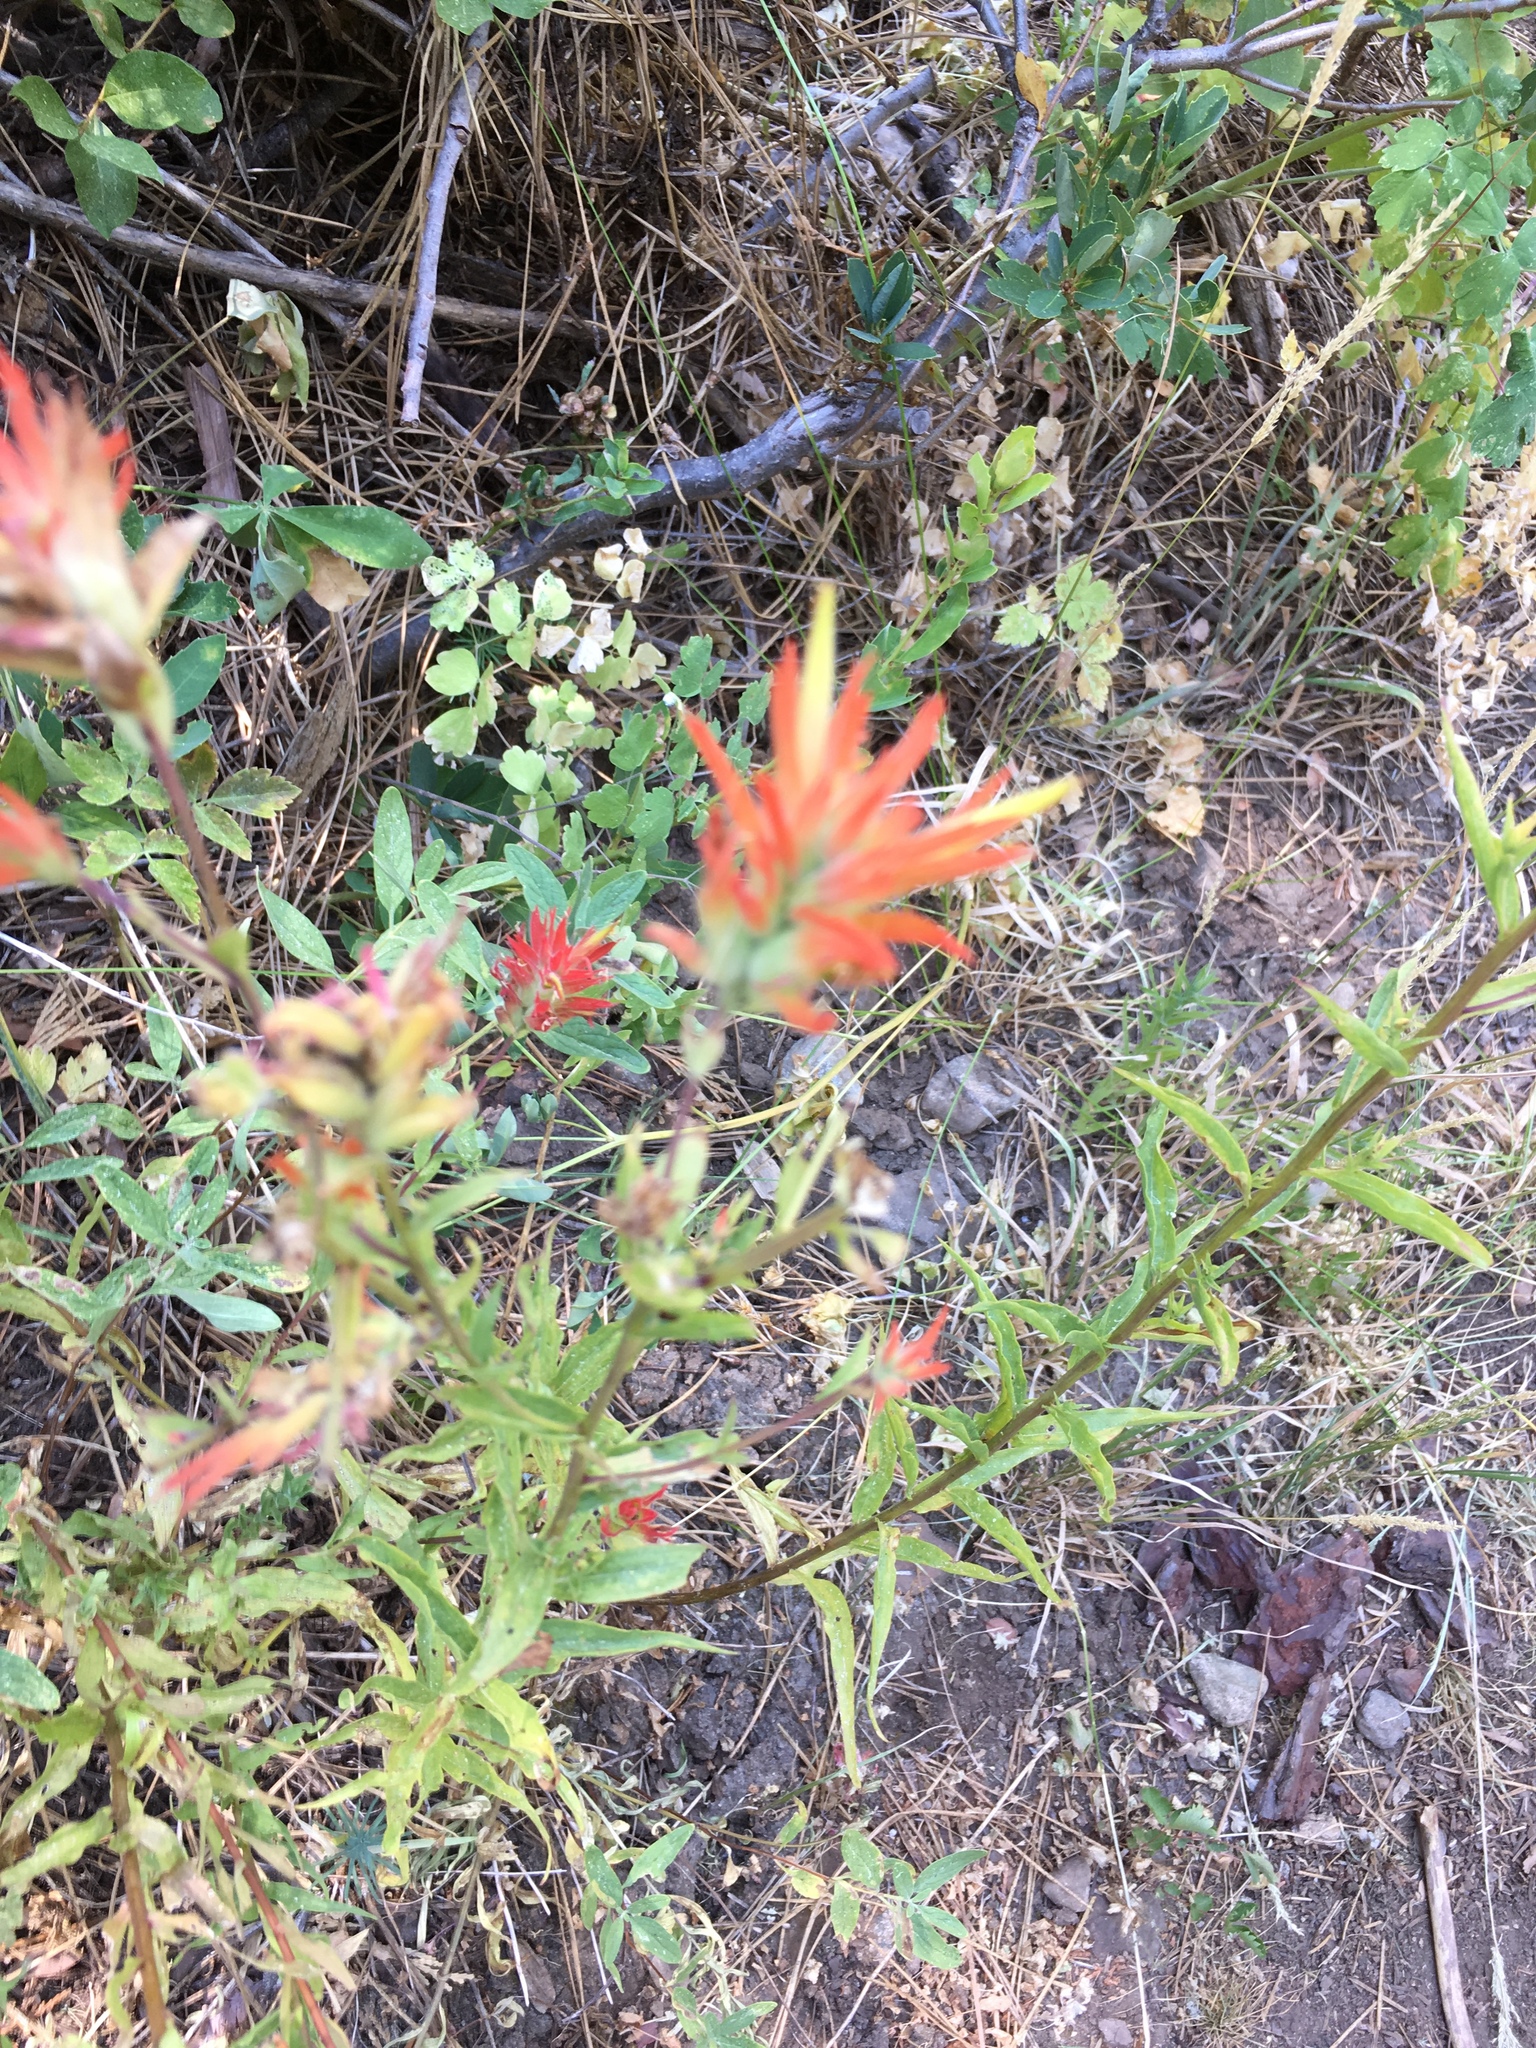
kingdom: Plantae
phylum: Tracheophyta
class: Magnoliopsida
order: Lamiales
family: Orobanchaceae
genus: Castilleja
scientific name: Castilleja miniata
